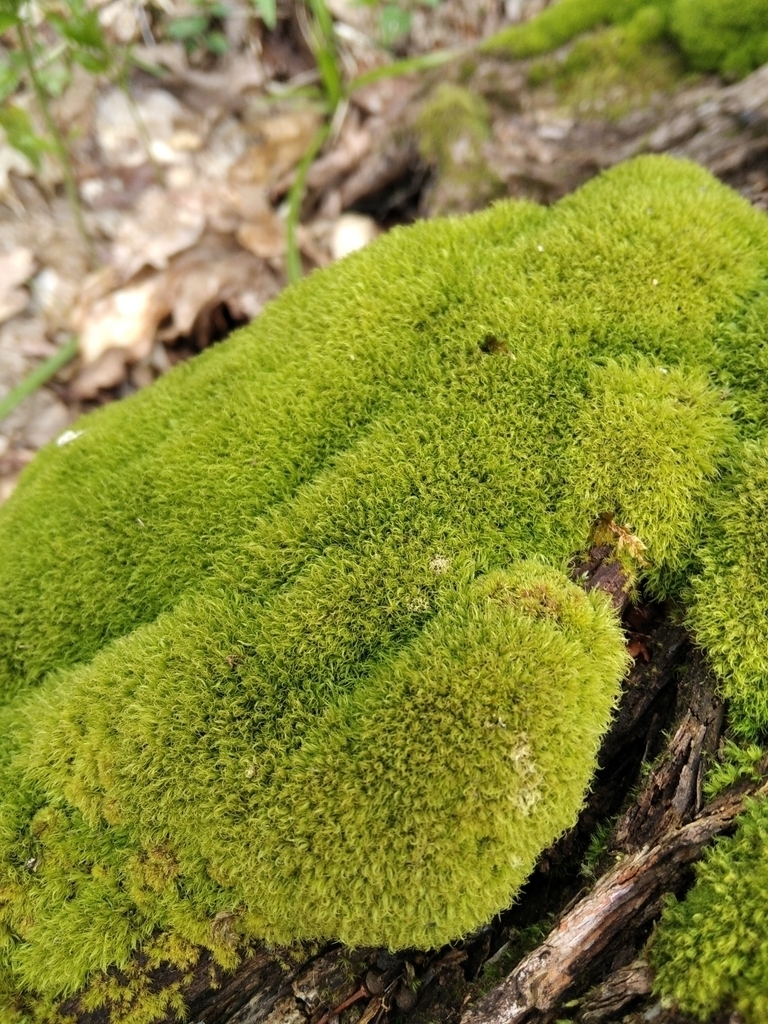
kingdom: Plantae
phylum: Bryophyta
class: Bryopsida
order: Dicranales
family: Dicranaceae
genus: Orthodicranum
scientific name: Orthodicranum montanum
